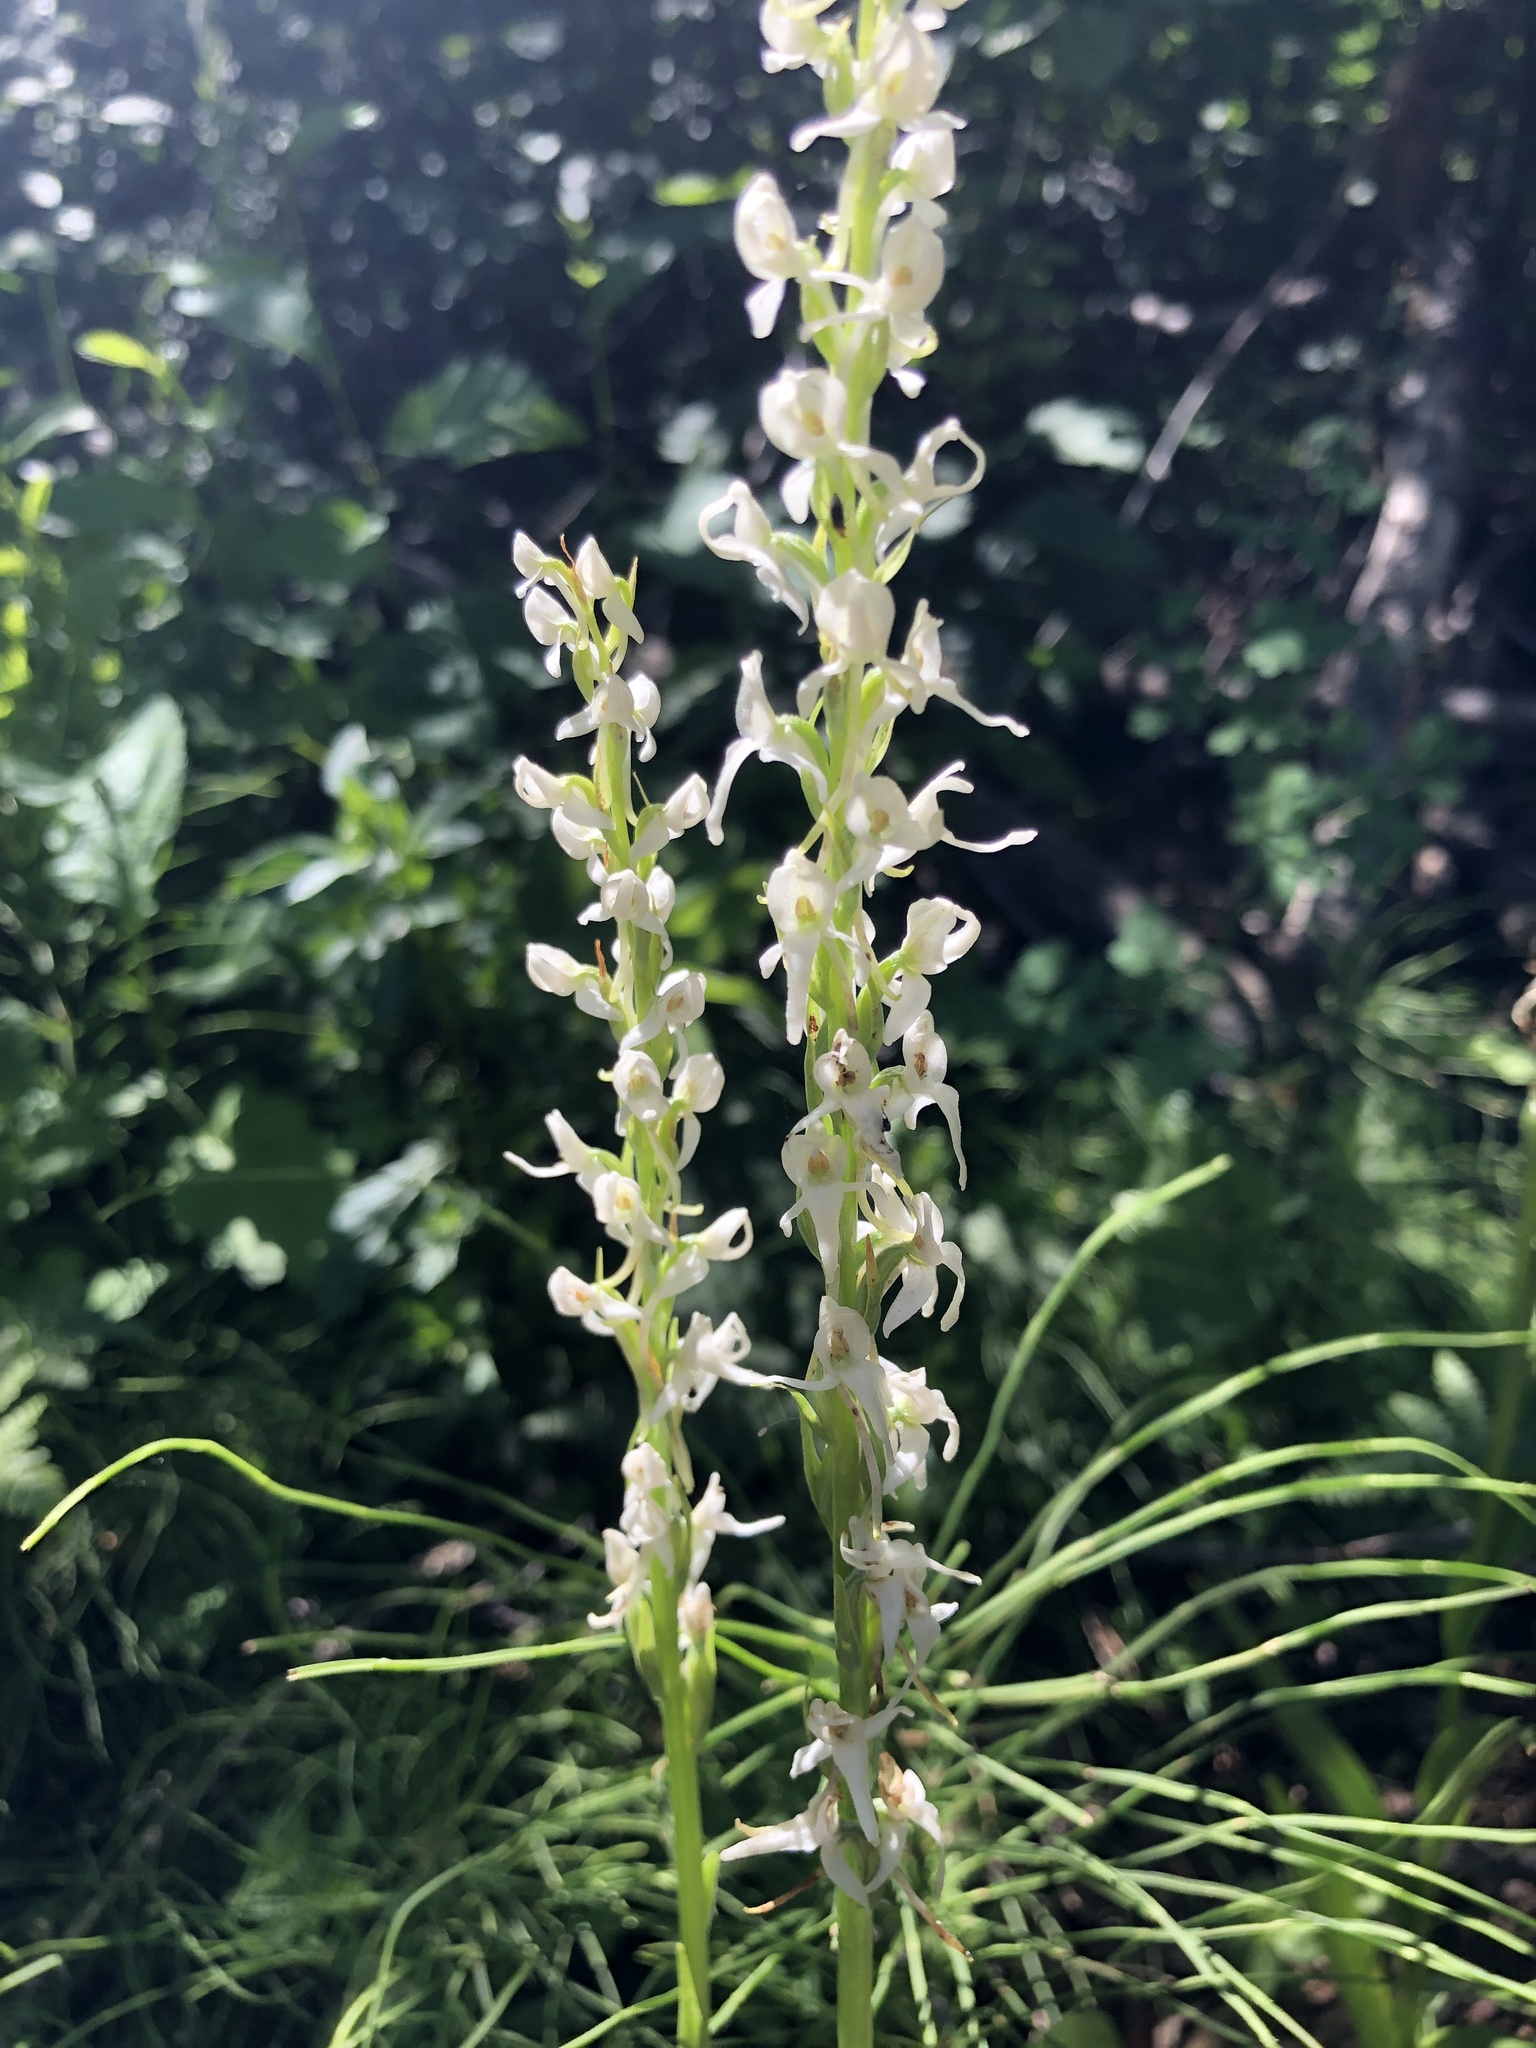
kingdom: Plantae
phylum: Tracheophyta
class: Liliopsida
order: Asparagales
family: Orchidaceae
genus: Platanthera
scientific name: Platanthera dilatata
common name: Bog candles
